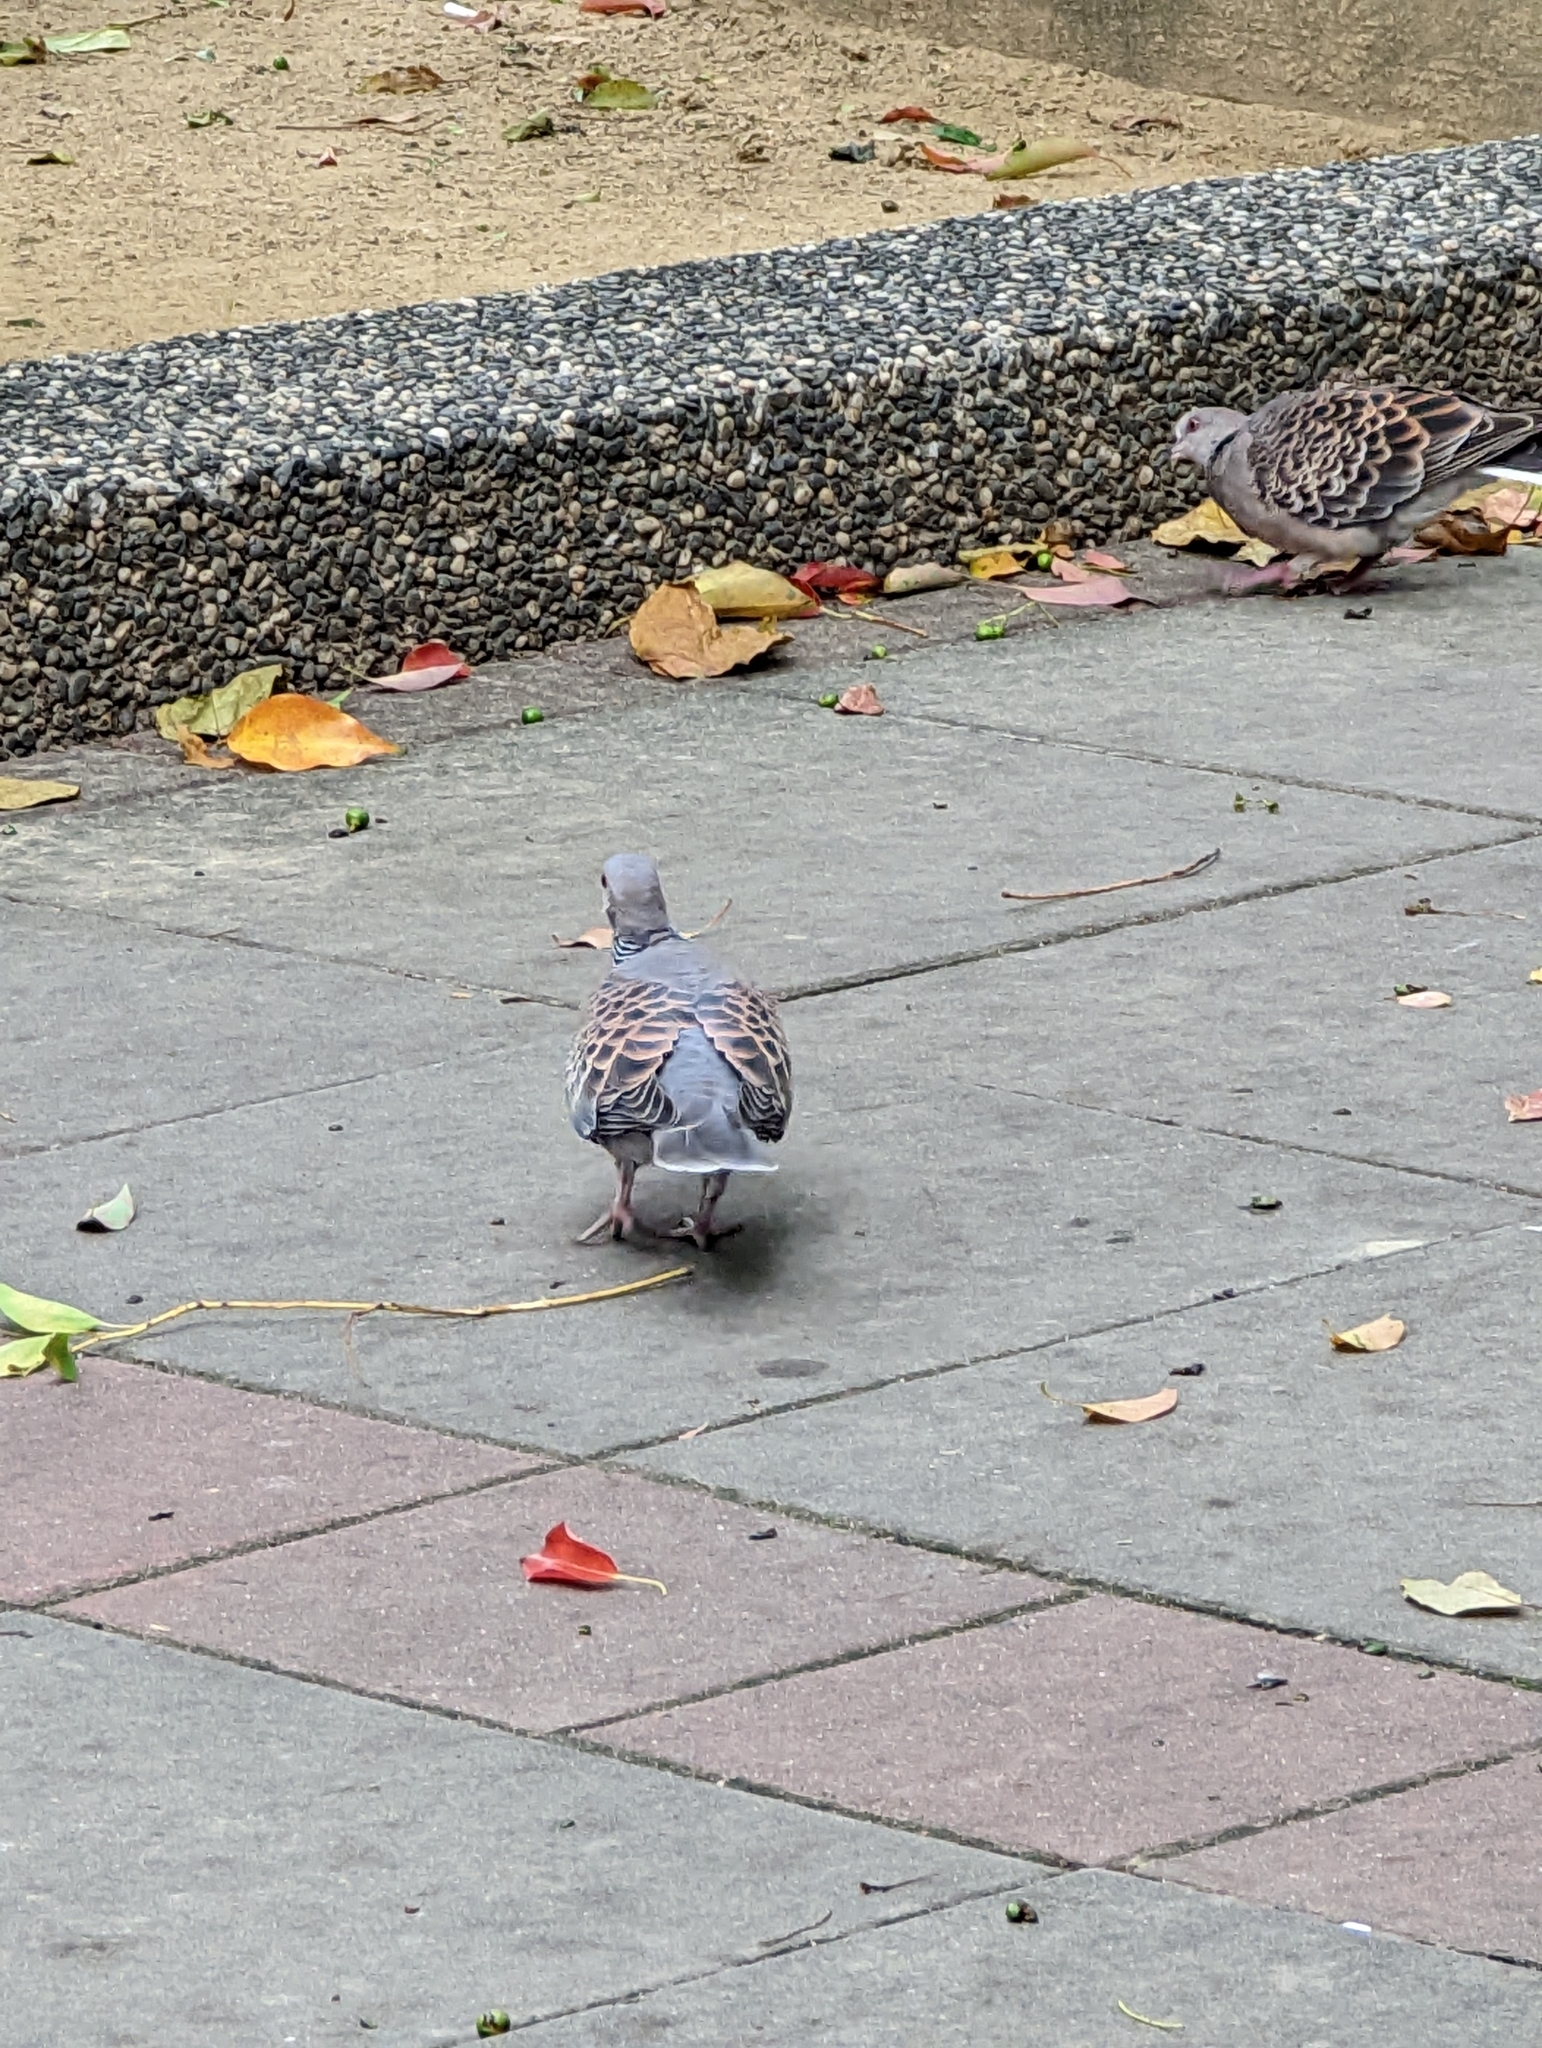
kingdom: Animalia
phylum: Chordata
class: Aves
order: Columbiformes
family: Columbidae
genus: Streptopelia
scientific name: Streptopelia orientalis
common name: Oriental turtle dove
